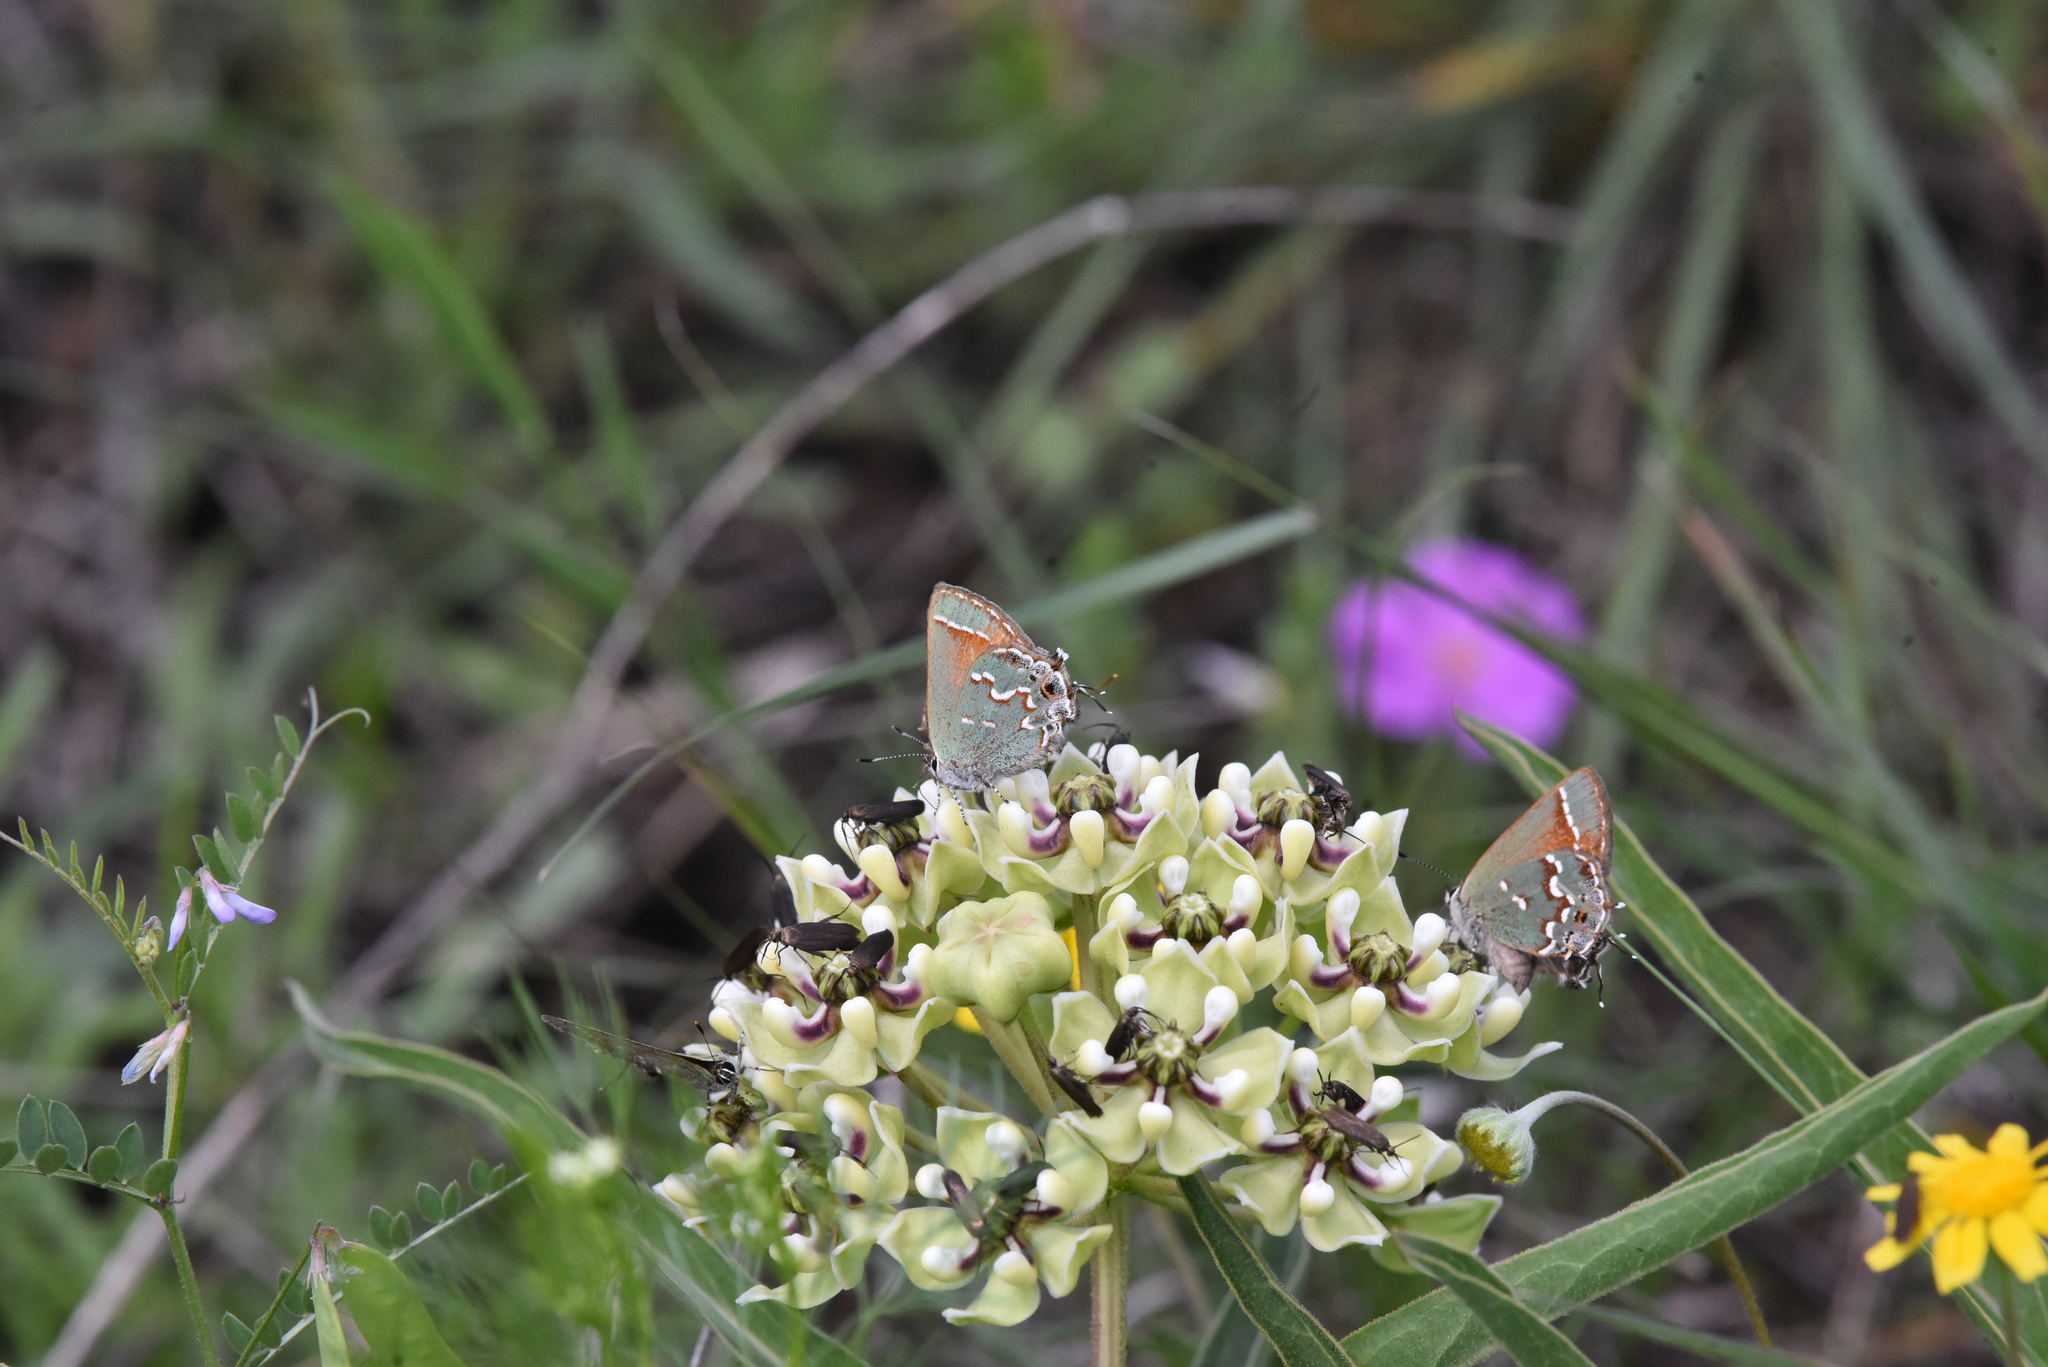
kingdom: Animalia
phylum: Arthropoda
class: Insecta
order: Lepidoptera
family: Lycaenidae
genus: Mitoura
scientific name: Mitoura gryneus
